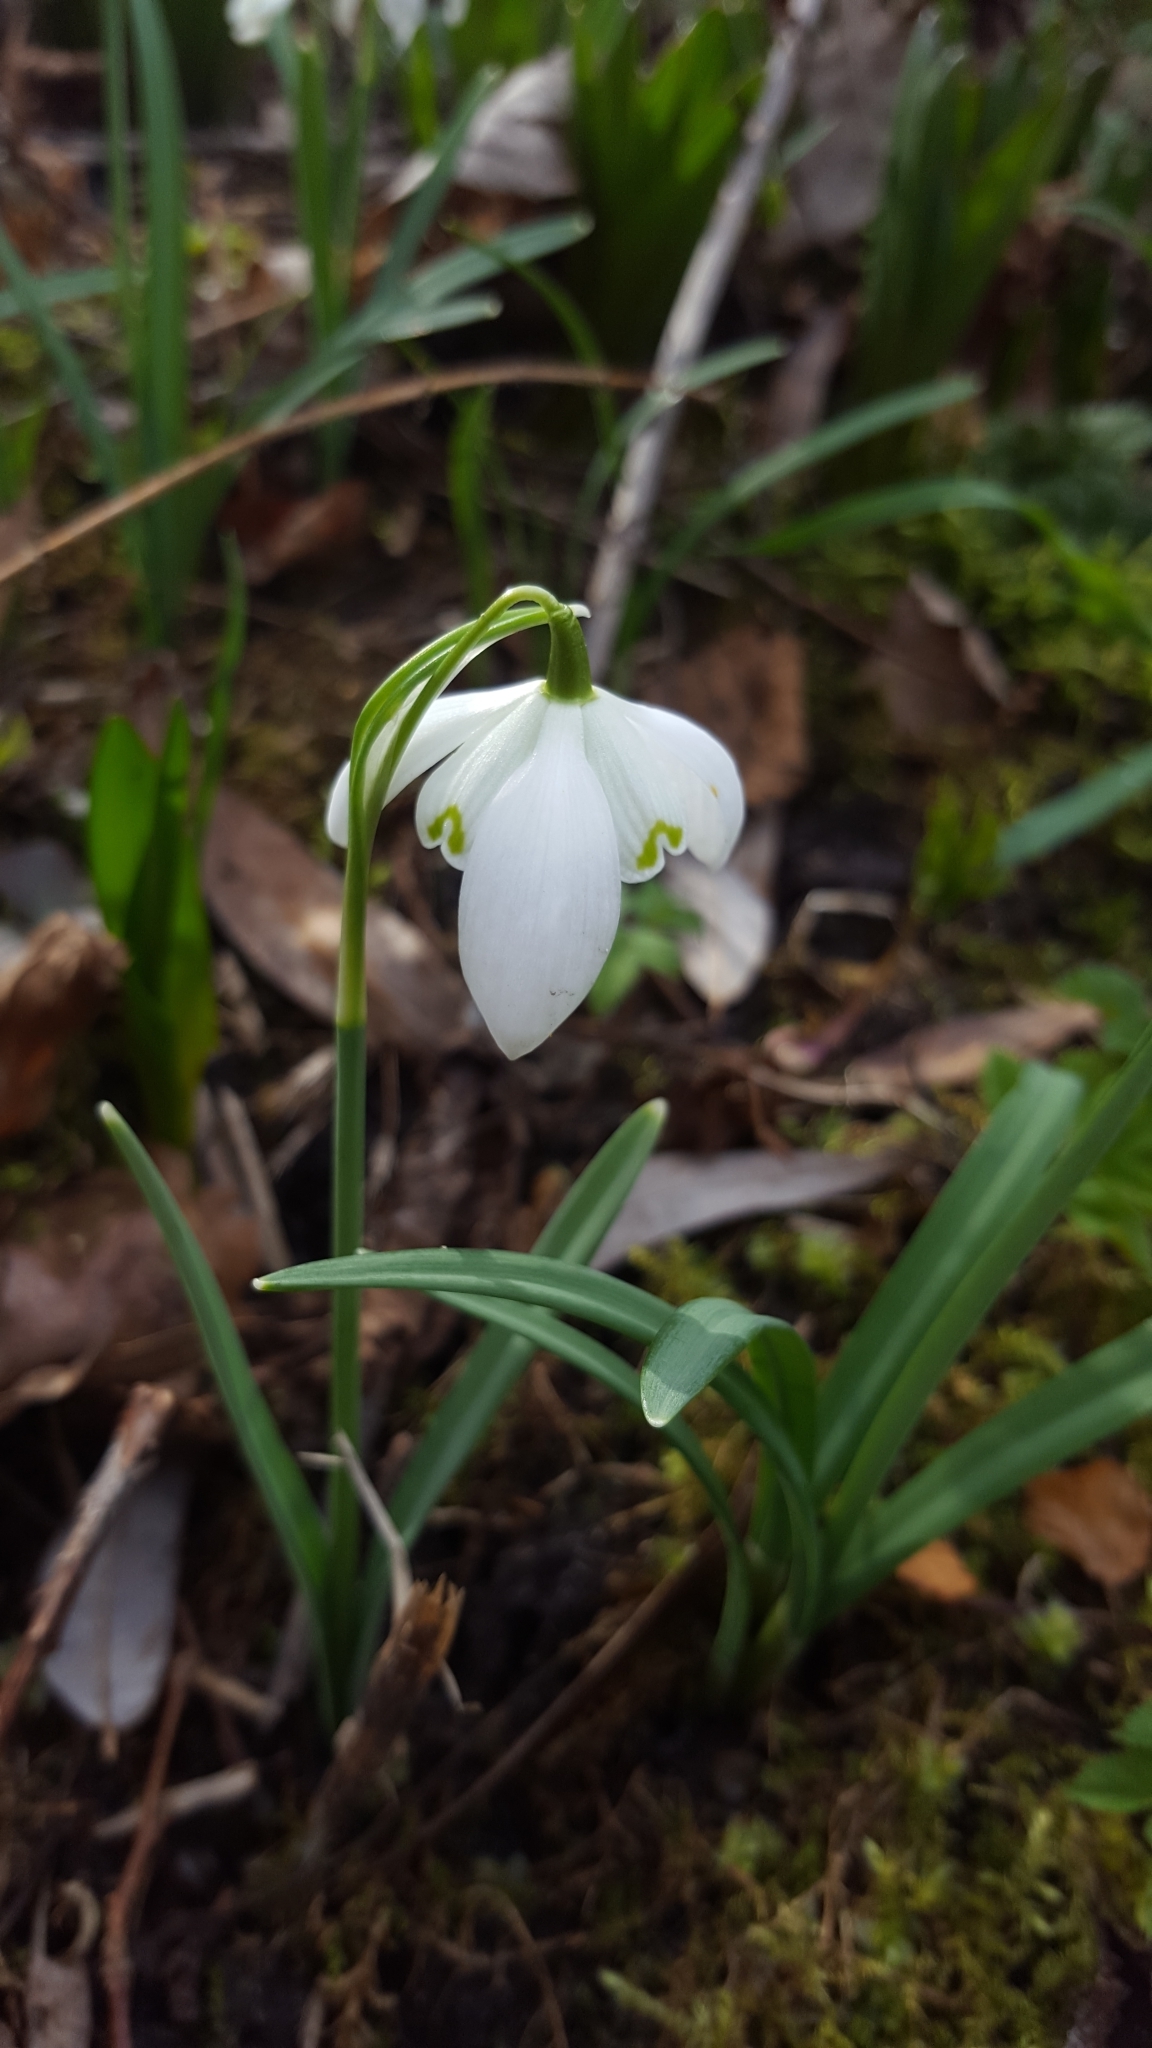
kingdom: Plantae
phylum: Tracheophyta
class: Liliopsida
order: Asparagales
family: Amaryllidaceae
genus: Galanthus
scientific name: Galanthus nivalis
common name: Snowdrop
